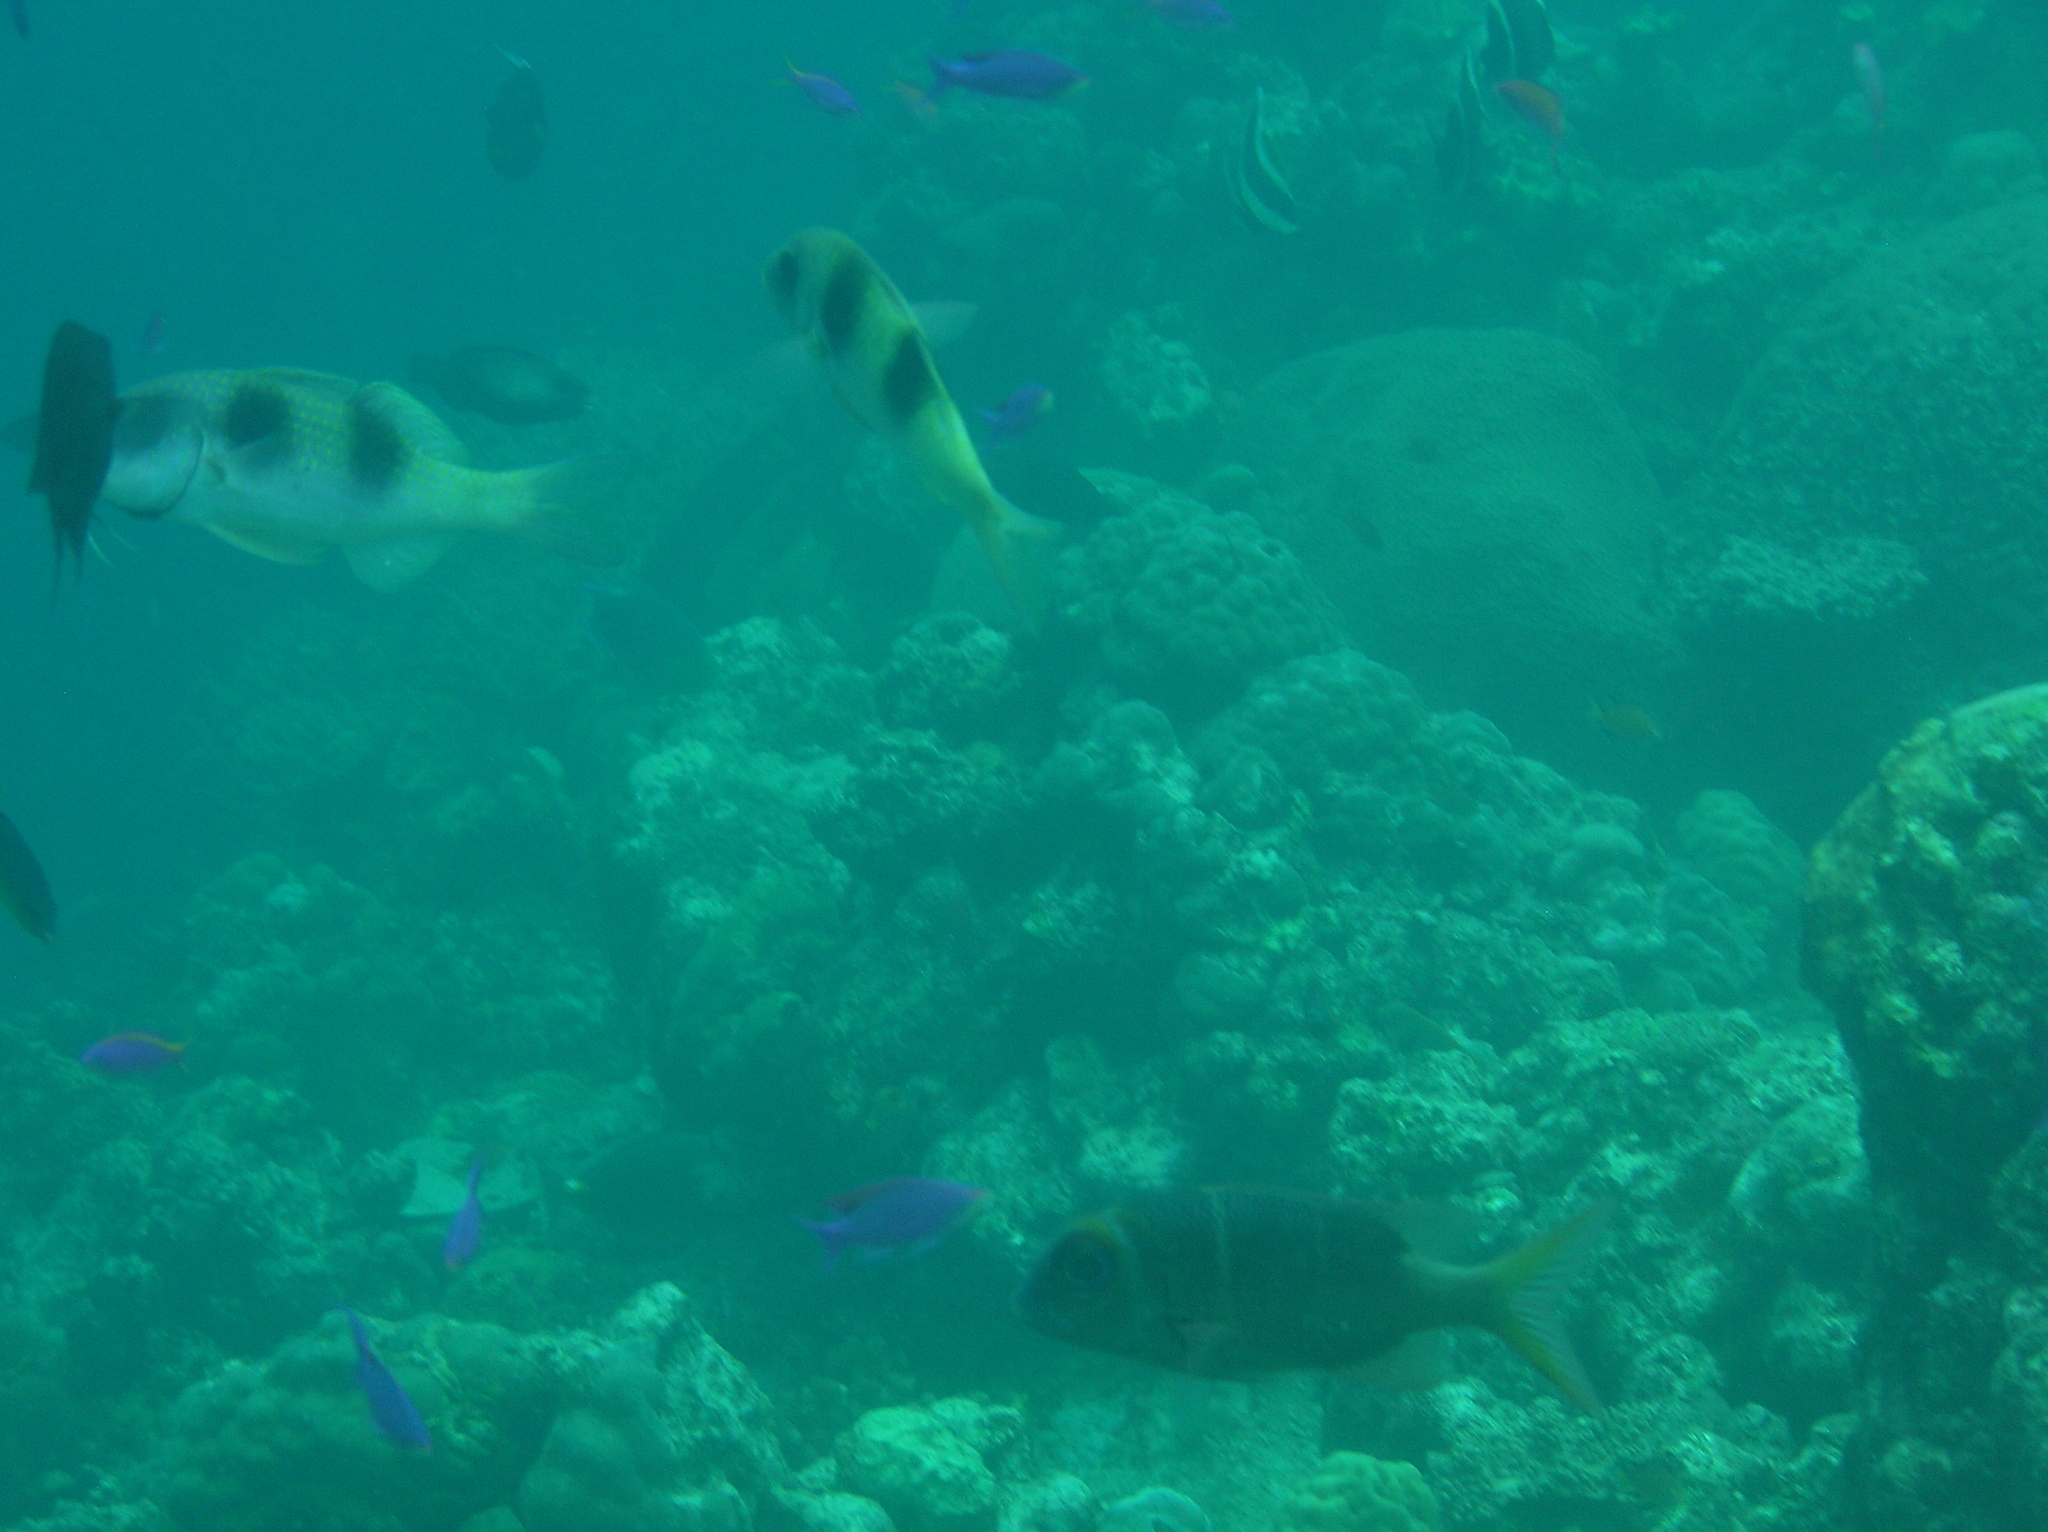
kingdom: Animalia
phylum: Chordata
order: Perciformes
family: Lethrinidae
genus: Monotaxis
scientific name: Monotaxis heterodon
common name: Redfin emperor
